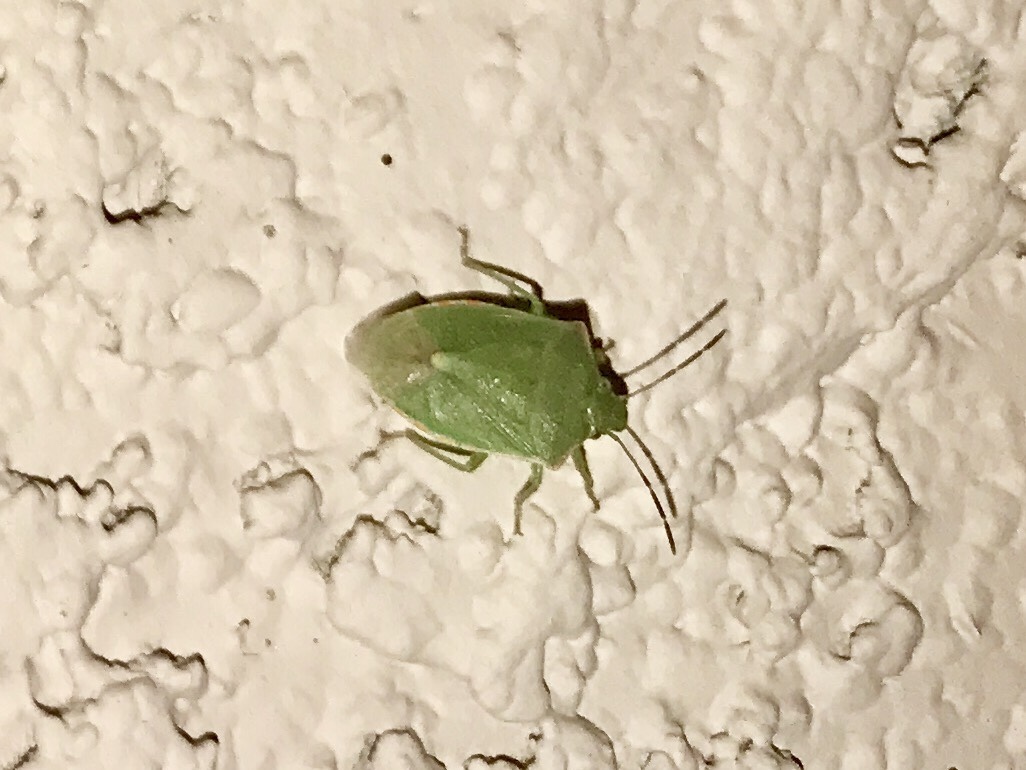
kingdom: Animalia
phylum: Arthropoda
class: Insecta
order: Hemiptera
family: Pentatomidae
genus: Thyanta
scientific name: Thyanta accerra
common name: Stink bug
